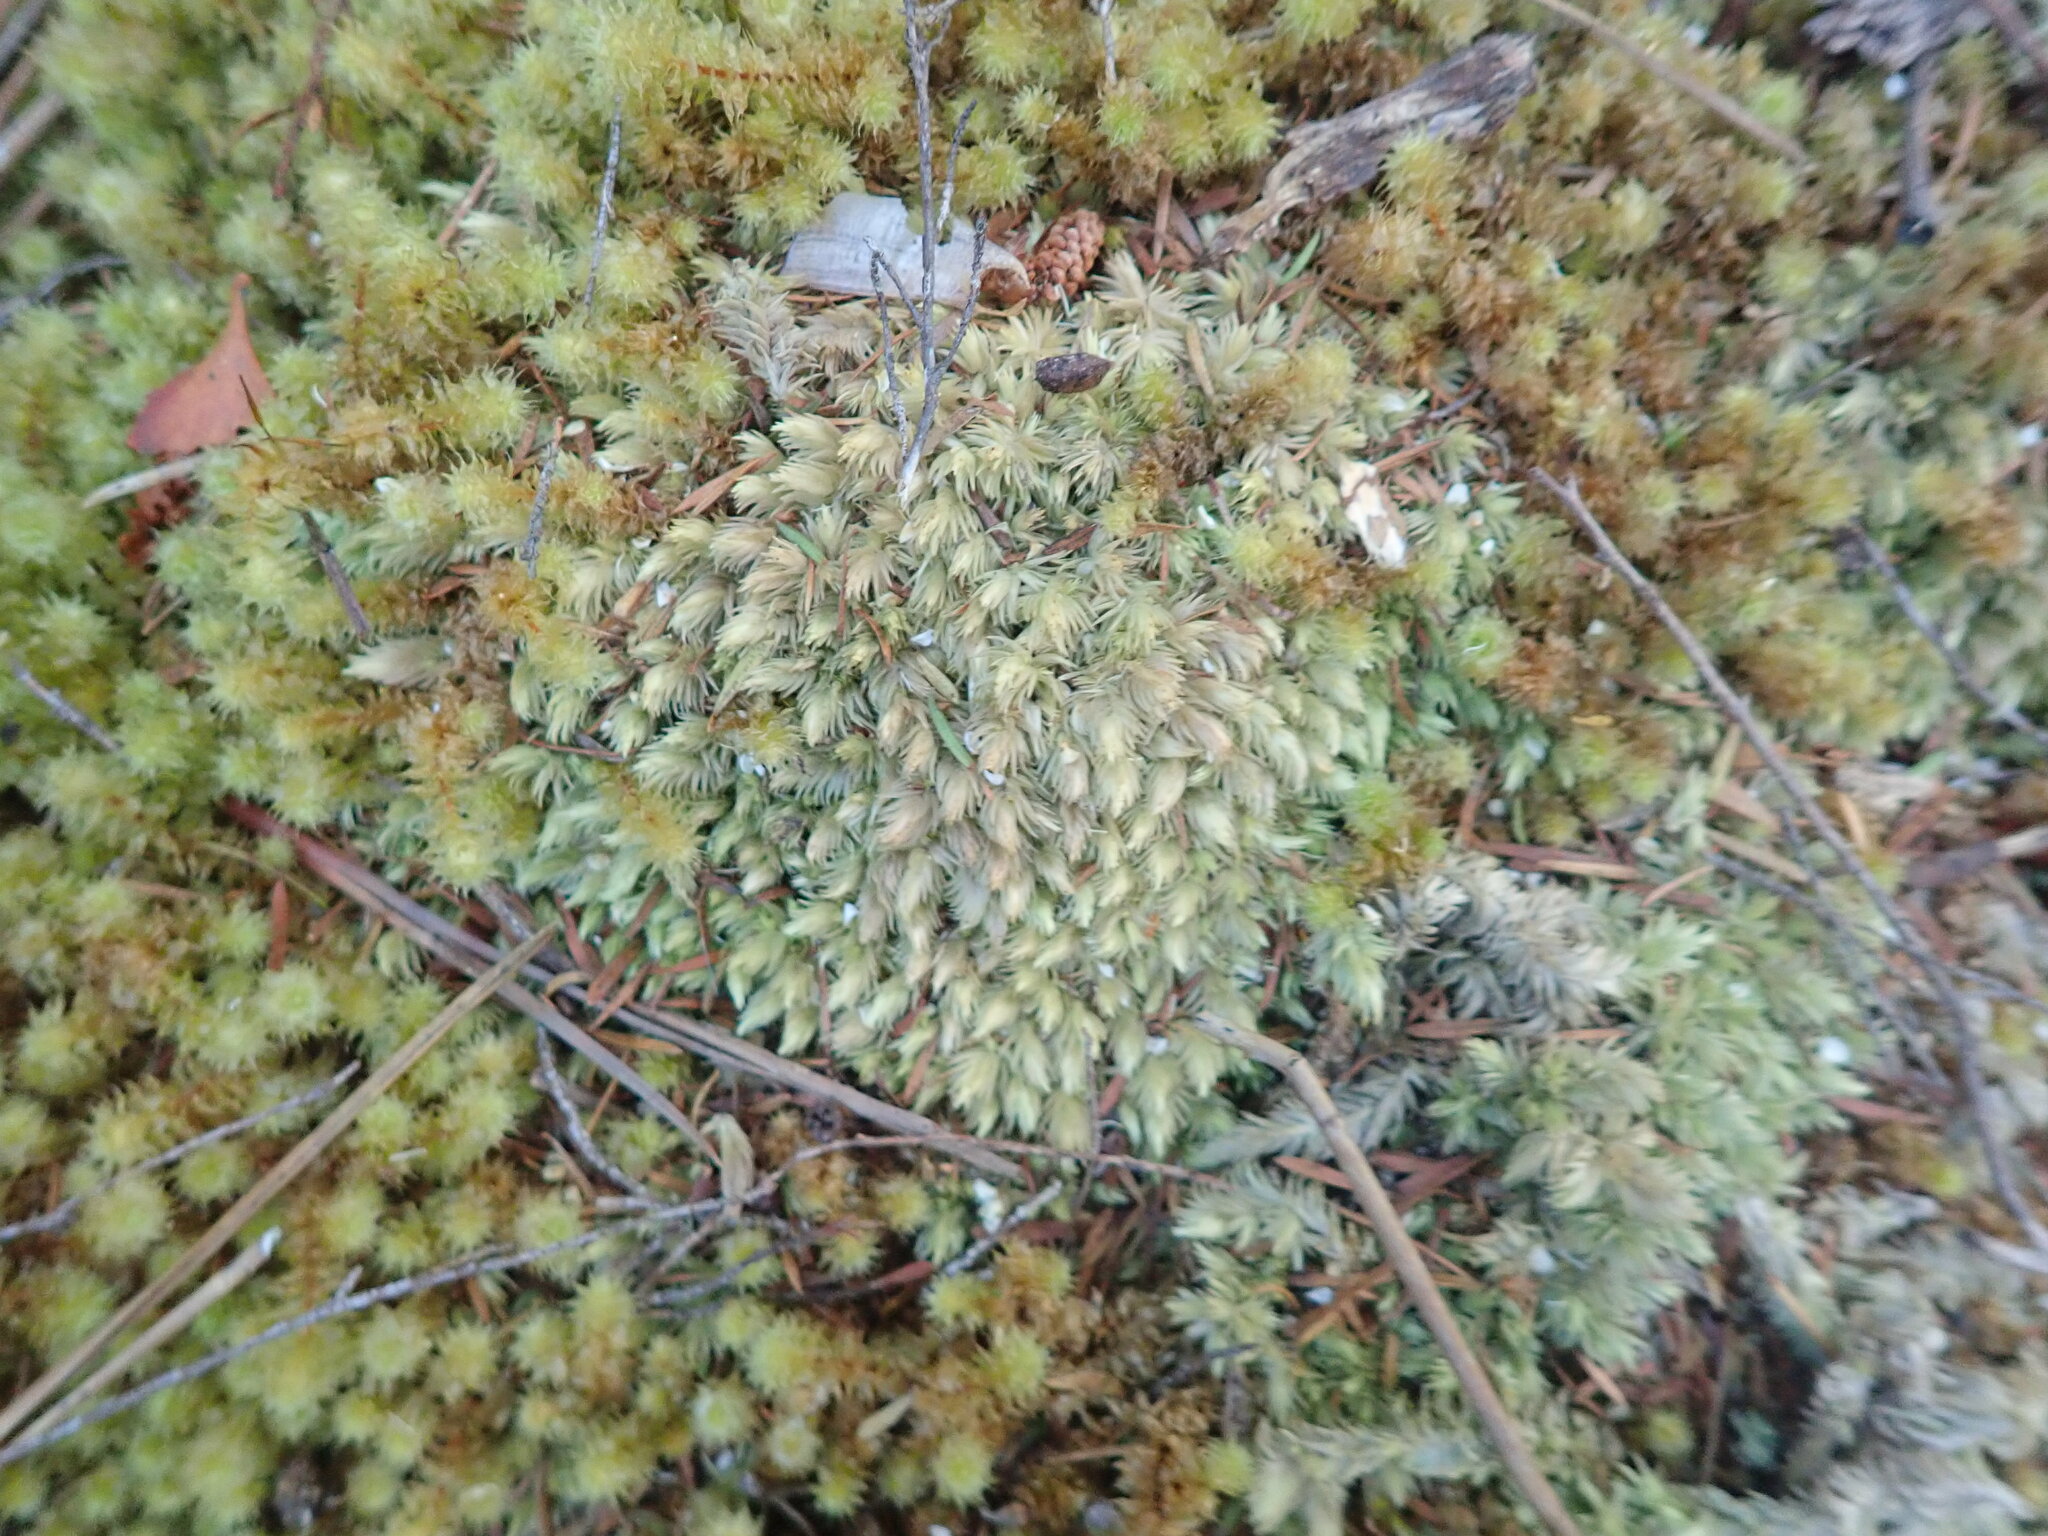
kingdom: Plantae
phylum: Bryophyta
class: Bryopsida
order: Dicranales
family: Leucobryaceae
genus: Leucobryum
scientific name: Leucobryum javense
